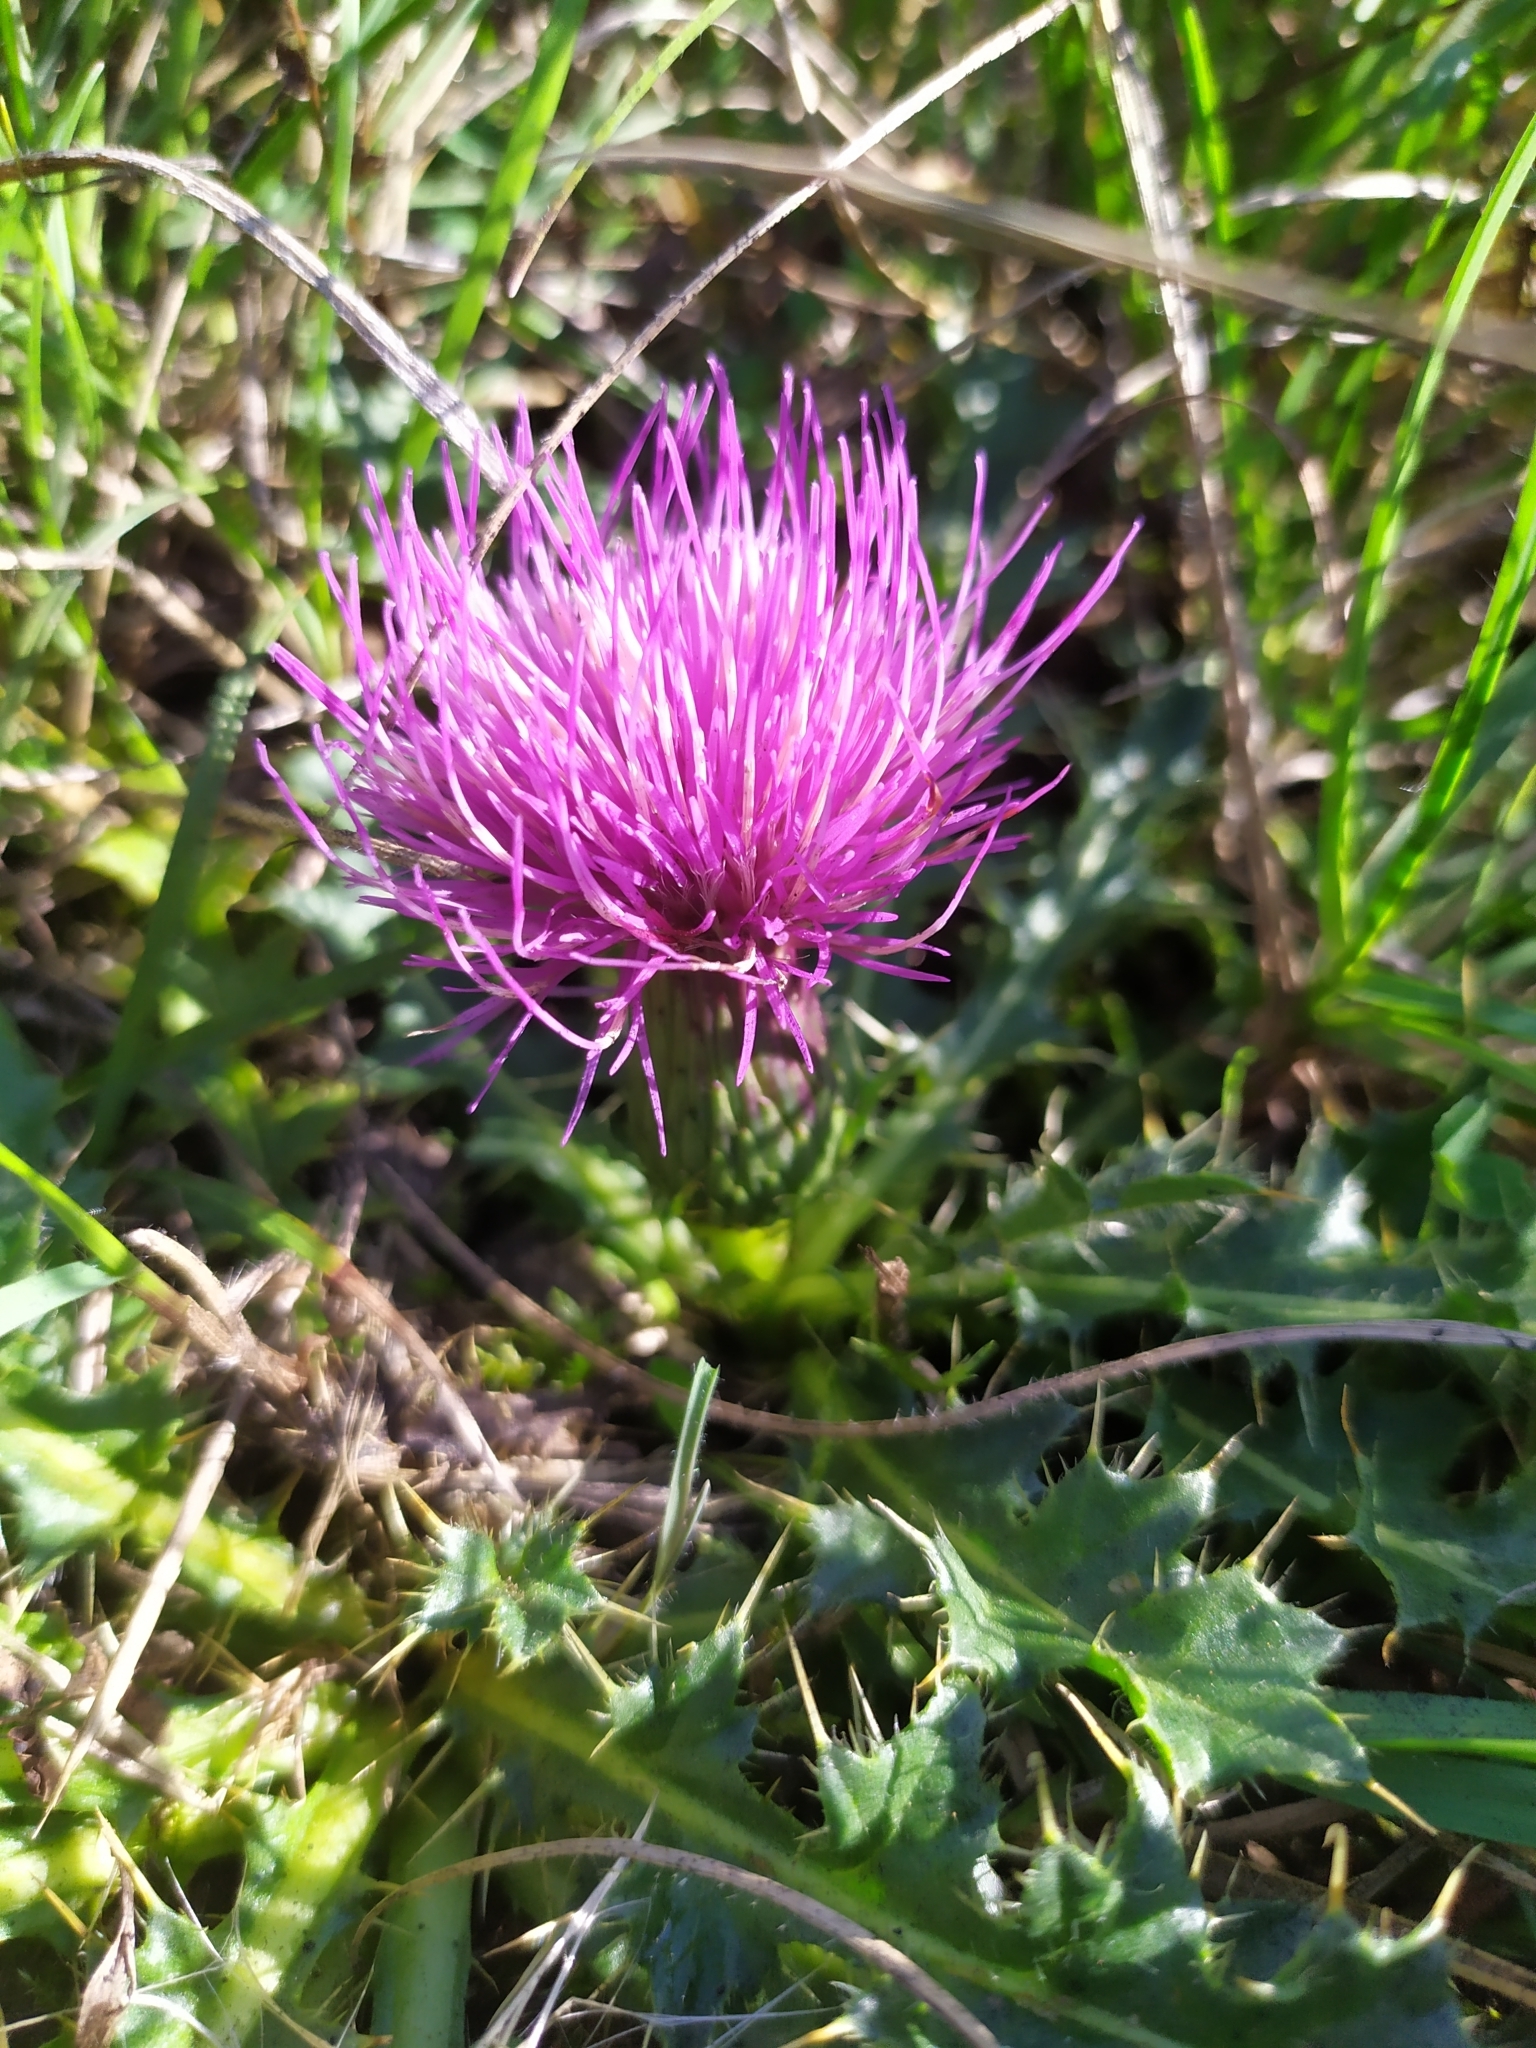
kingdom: Plantae
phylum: Tracheophyta
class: Magnoliopsida
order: Asterales
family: Asteraceae
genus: Cirsium
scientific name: Cirsium acaulon
